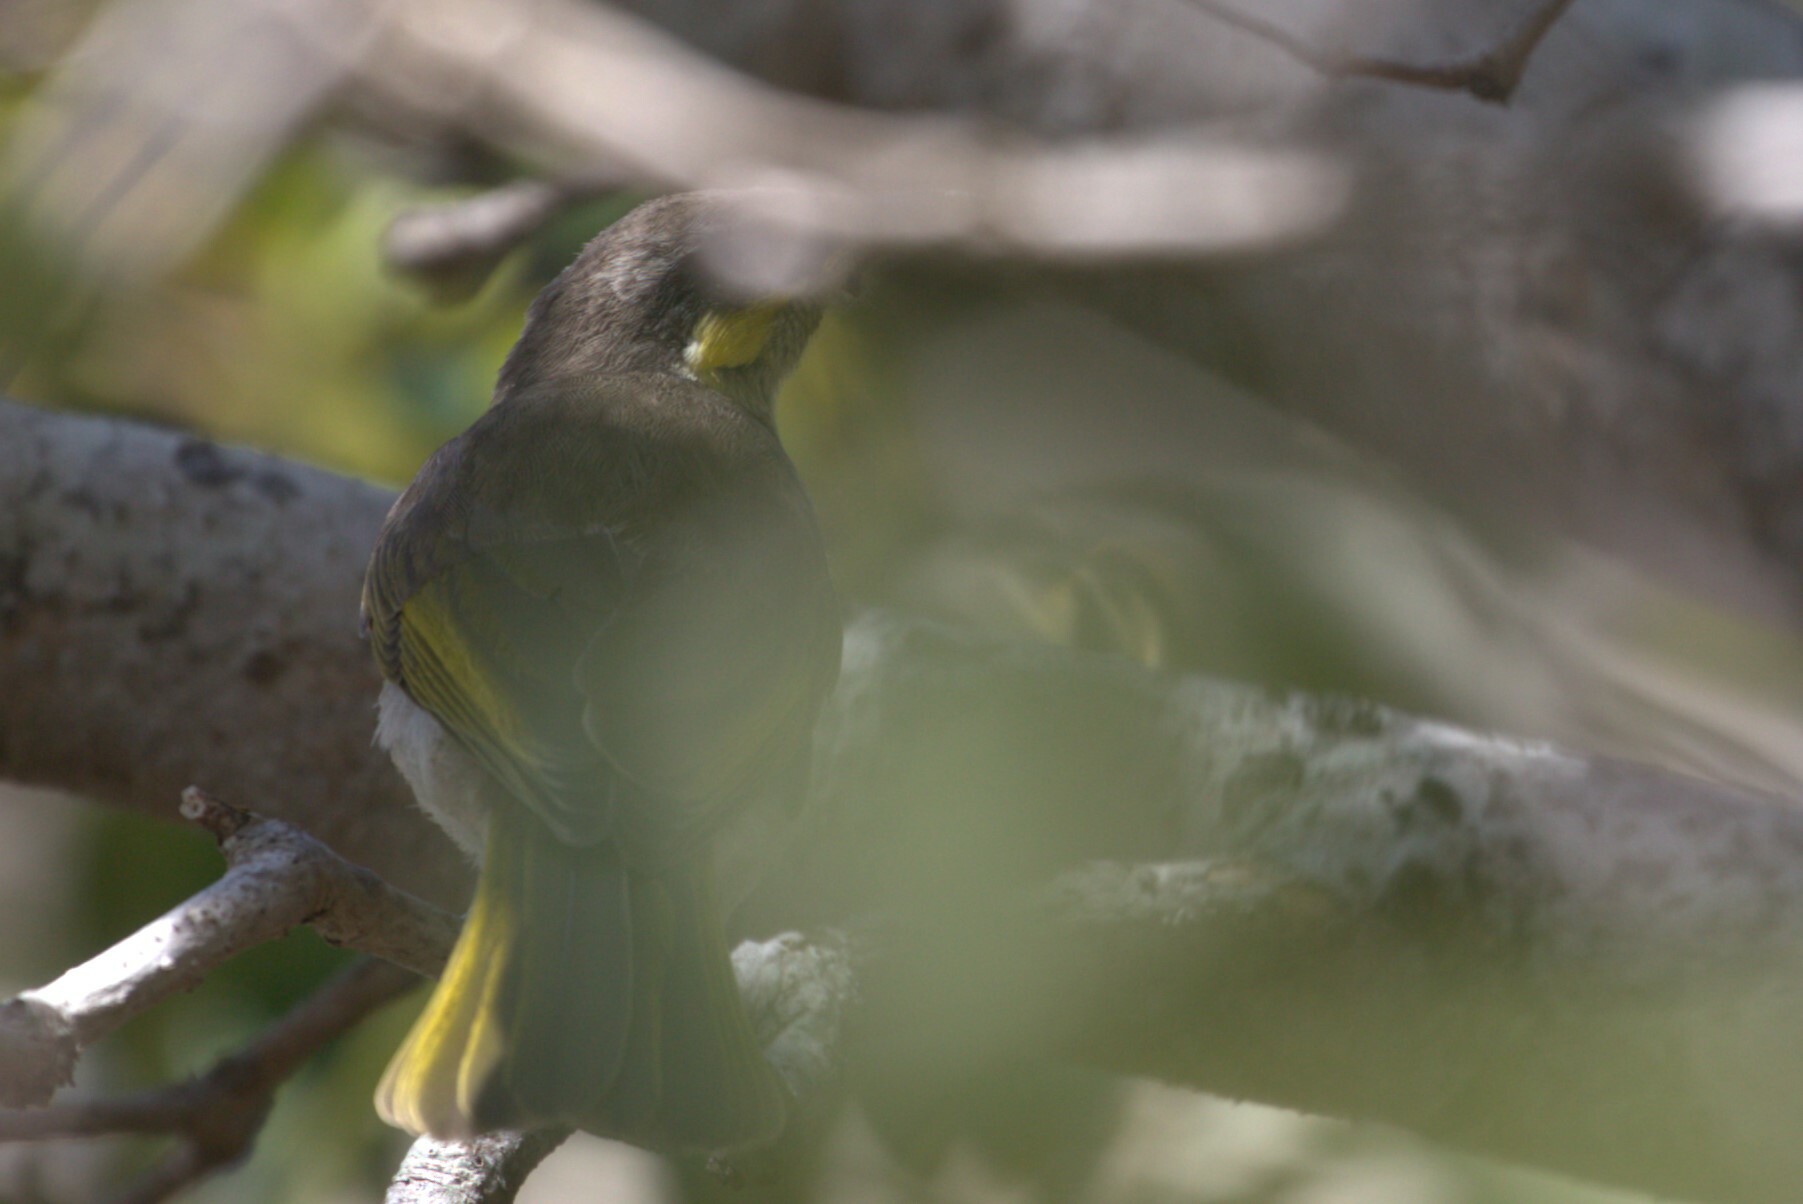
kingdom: Animalia
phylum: Chordata
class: Aves
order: Passeriformes
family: Meliphagidae
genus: Gavicalis
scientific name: Gavicalis fasciogularis
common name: Mangrove honeyeater
